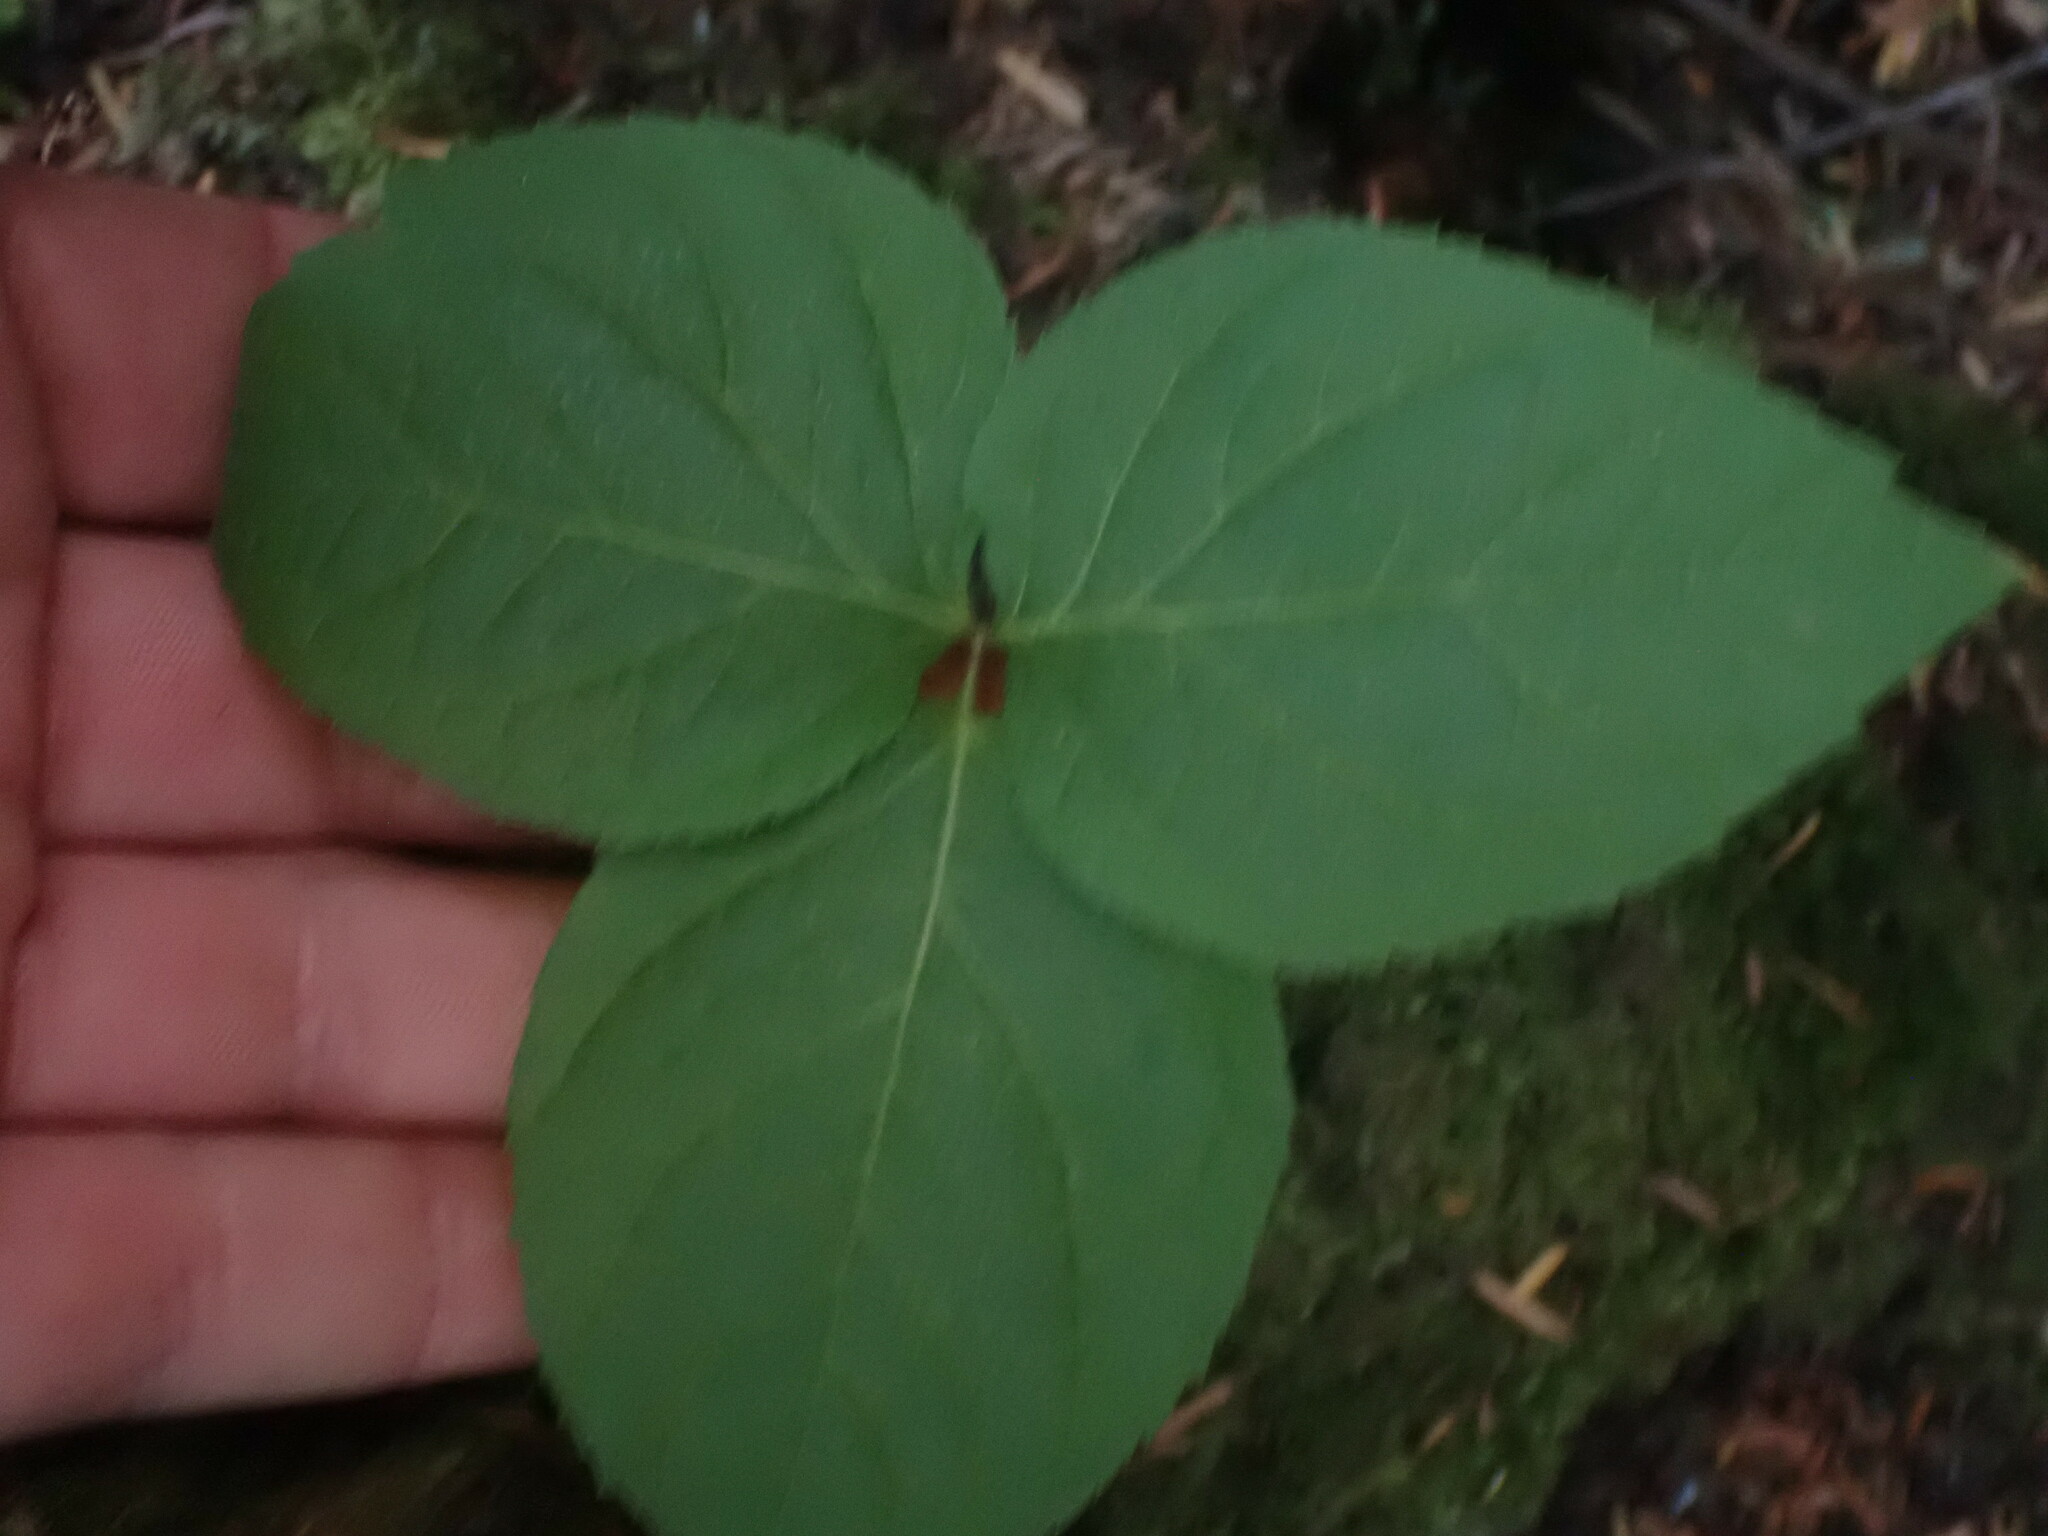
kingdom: Plantae
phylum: Tracheophyta
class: Magnoliopsida
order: Apiales
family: Araliaceae
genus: Aralia
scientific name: Aralia nudicaulis
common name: Wild sarsaparilla
